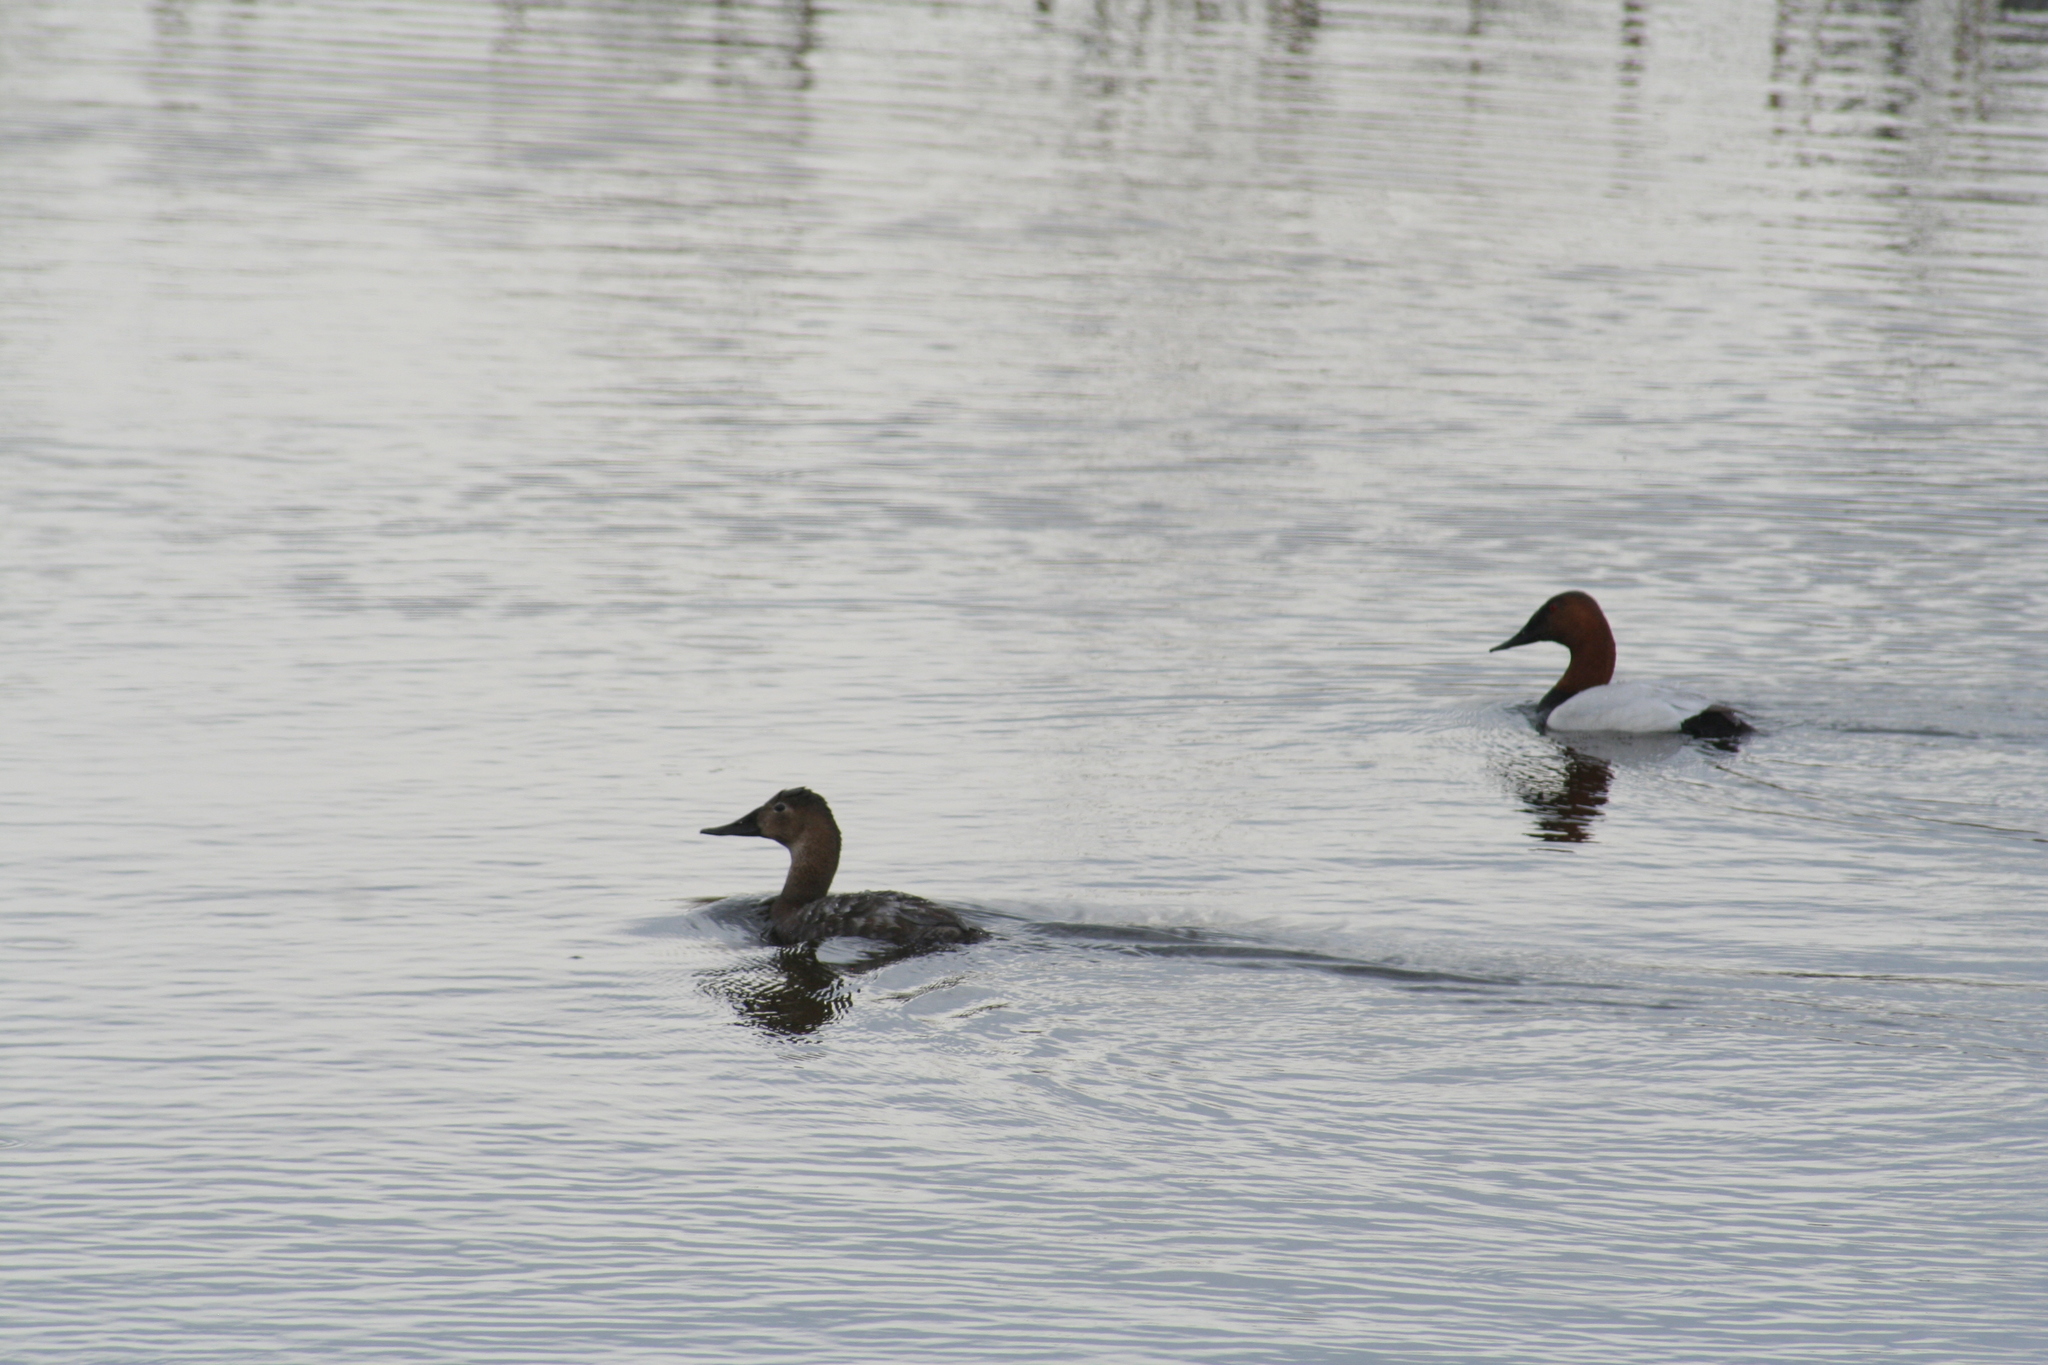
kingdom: Animalia
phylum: Chordata
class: Aves
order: Anseriformes
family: Anatidae
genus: Aythya
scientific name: Aythya valisineria
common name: Canvasback
